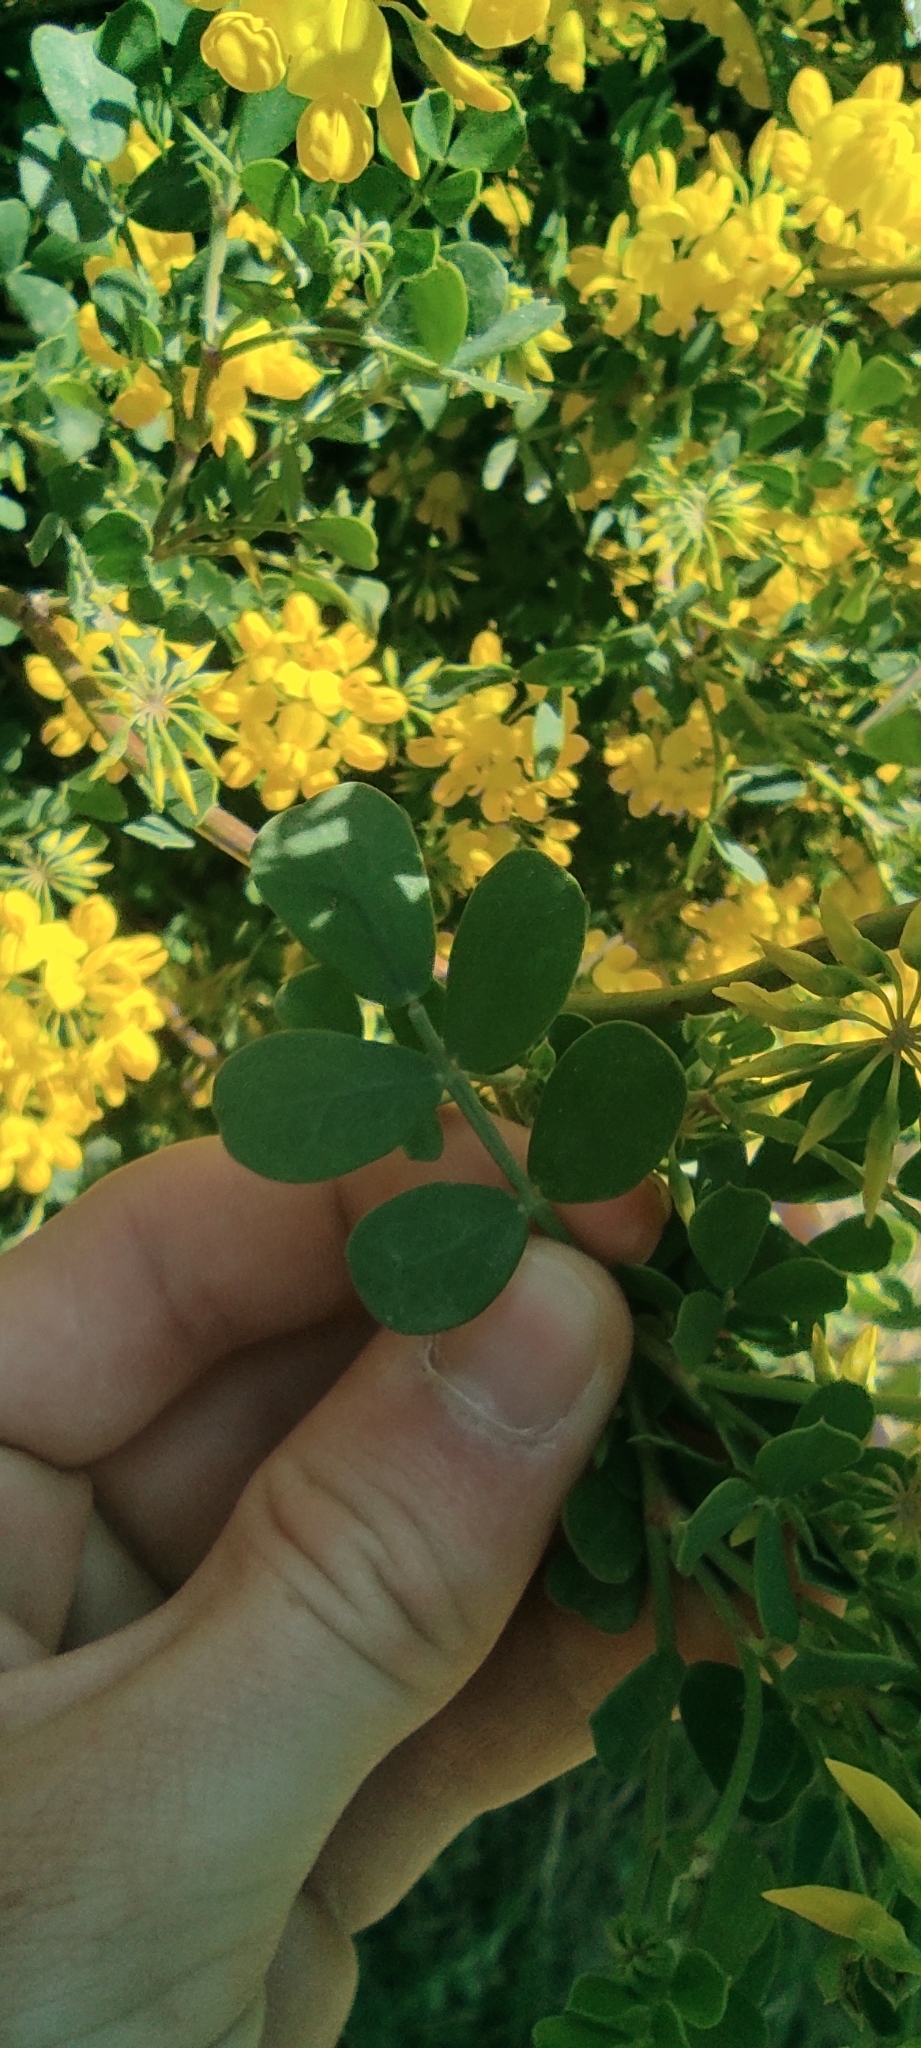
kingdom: Plantae
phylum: Tracheophyta
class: Magnoliopsida
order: Fabales
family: Fabaceae
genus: Coronilla
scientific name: Coronilla valentina
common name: Shrubby scorpion-vetch
